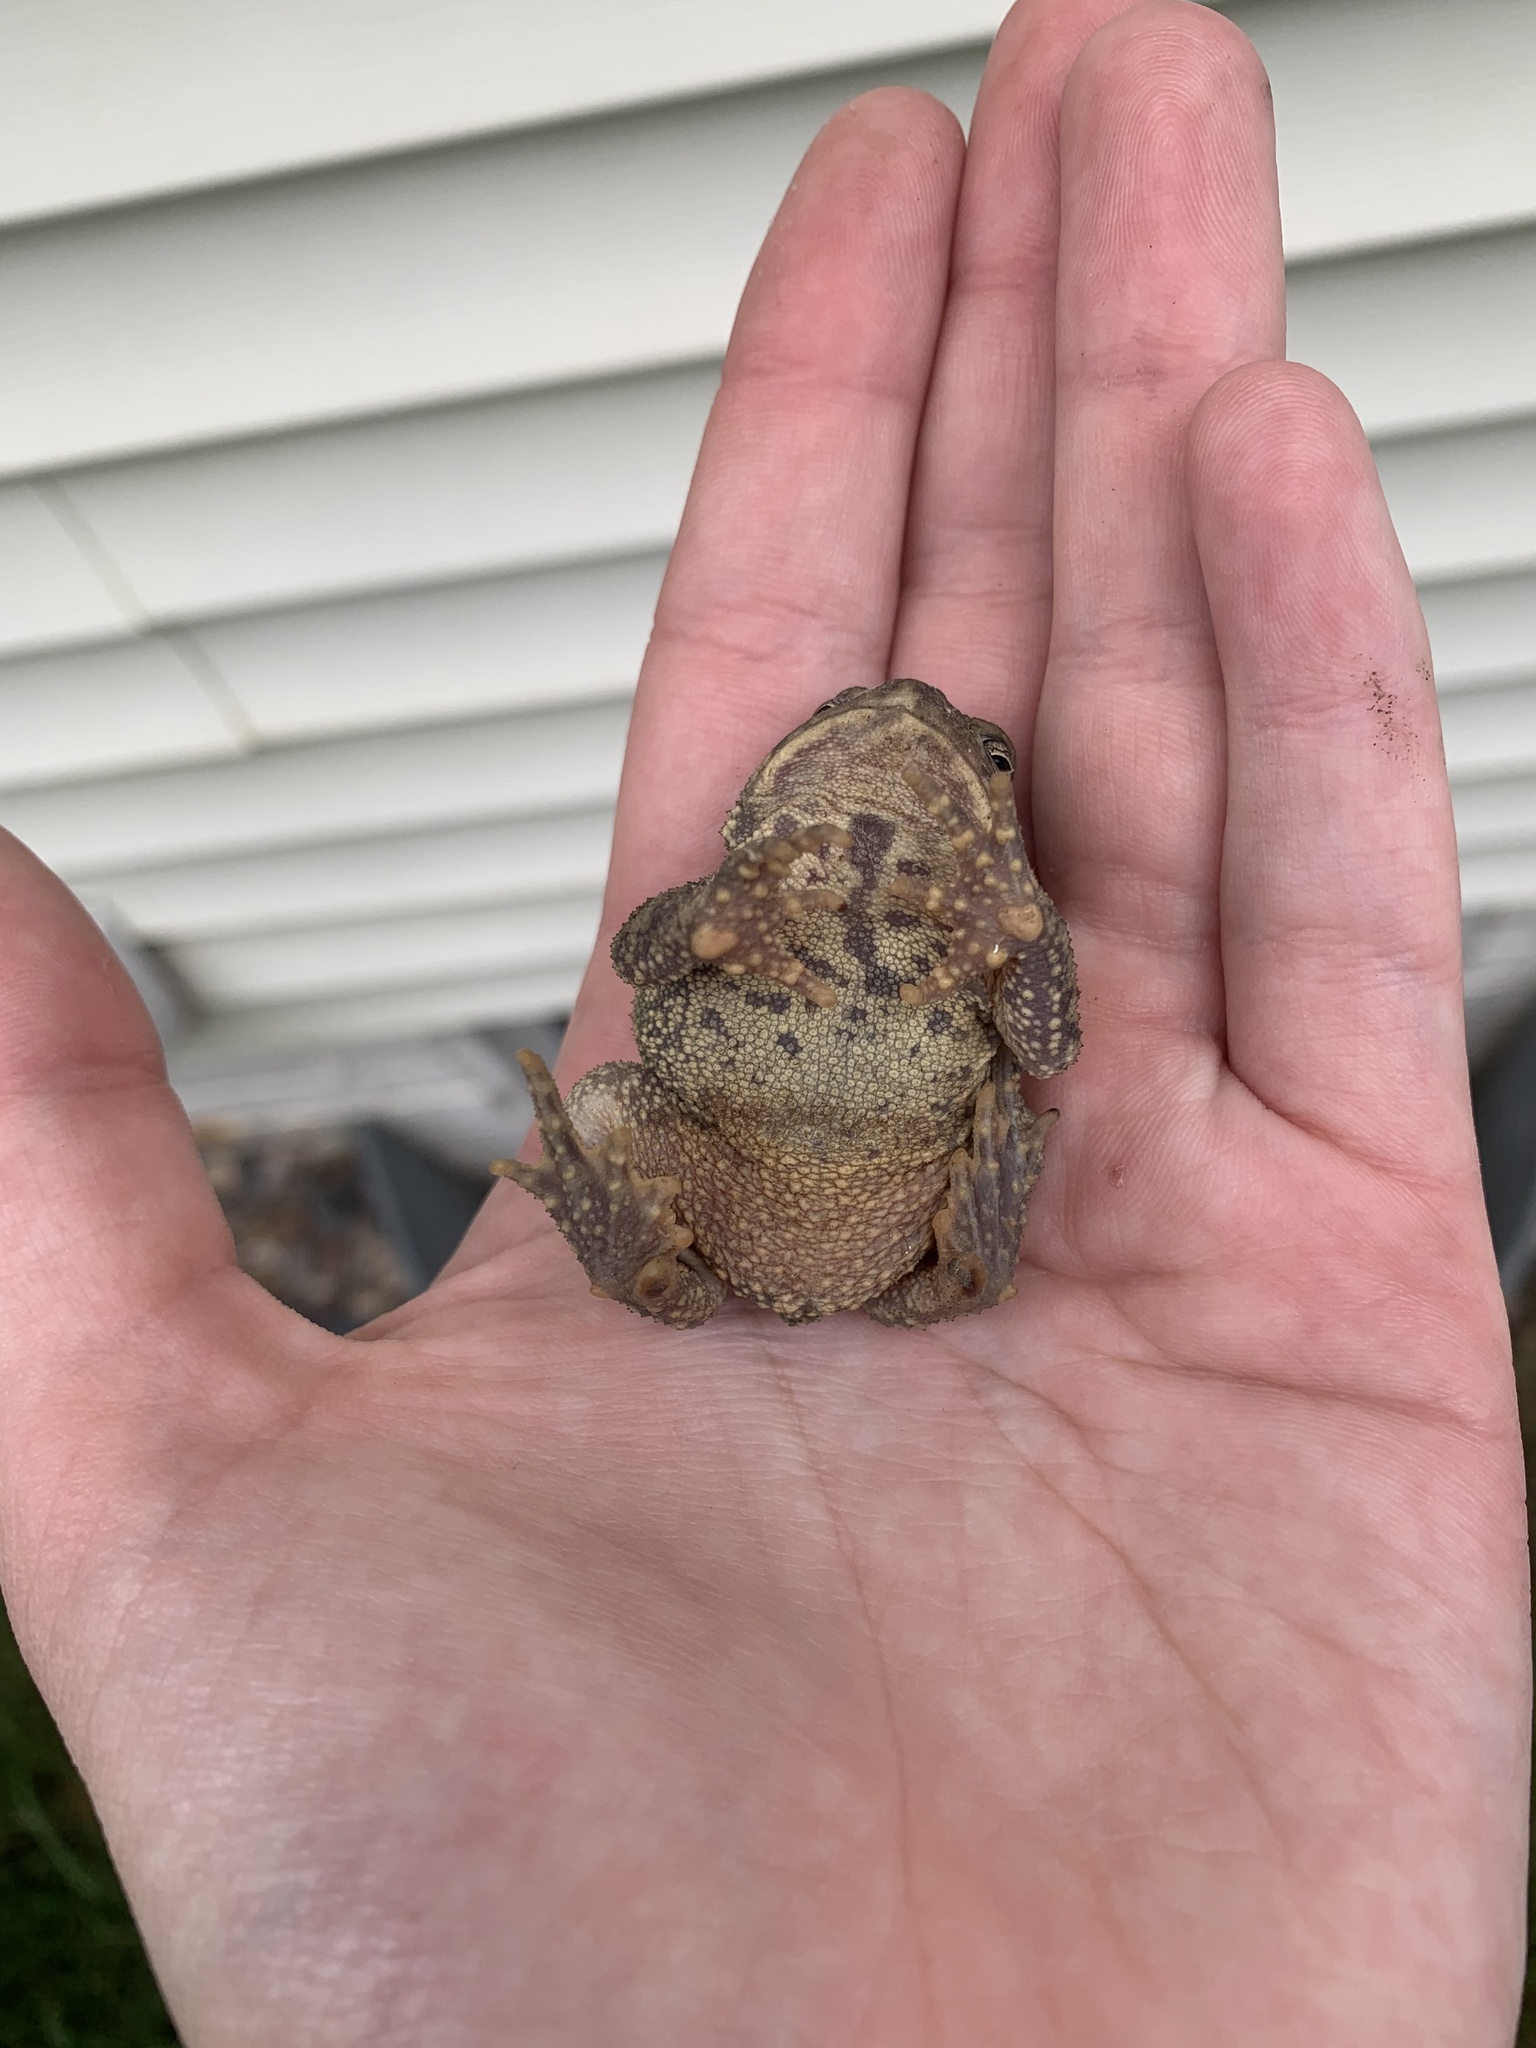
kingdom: Animalia
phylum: Chordata
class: Amphibia
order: Anura
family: Bufonidae
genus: Anaxyrus
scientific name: Anaxyrus americanus
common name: American toad
